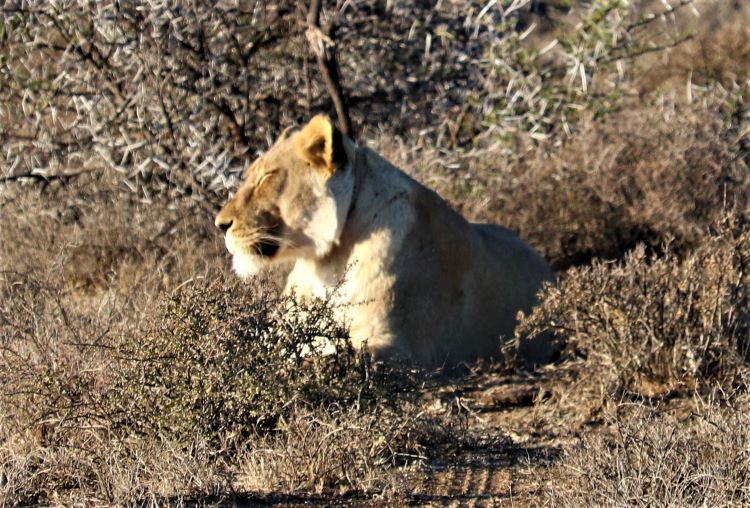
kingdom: Animalia
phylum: Chordata
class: Mammalia
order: Carnivora
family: Felidae
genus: Panthera
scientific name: Panthera leo
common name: Lion
